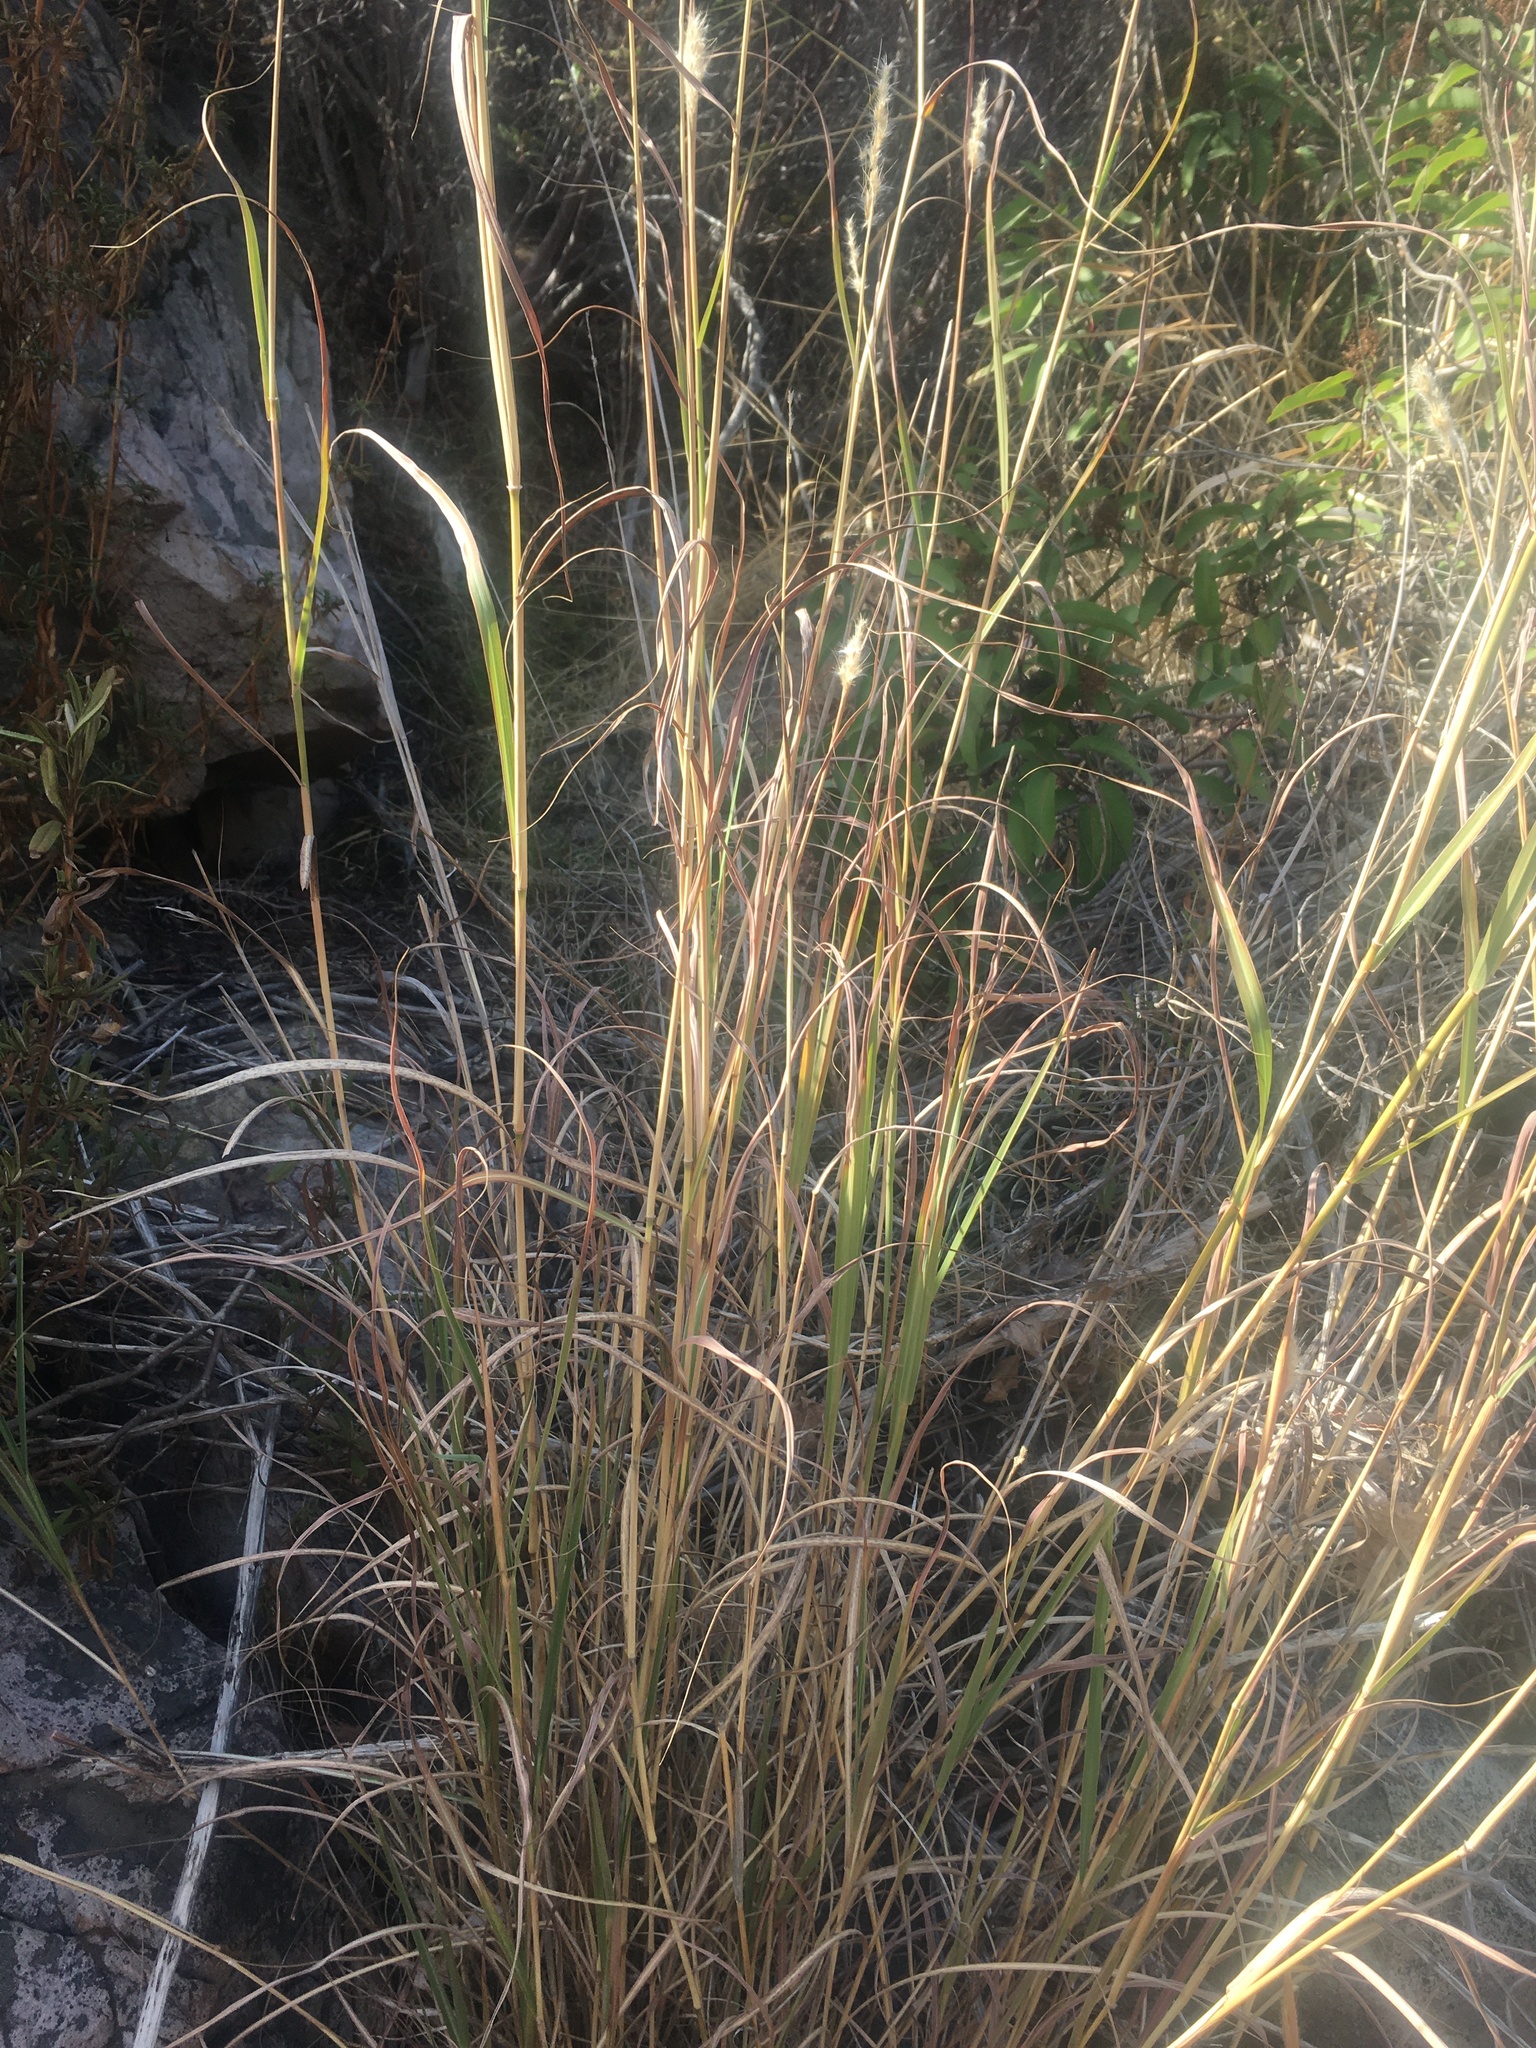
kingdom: Plantae
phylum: Tracheophyta
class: Liliopsida
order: Poales
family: Poaceae
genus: Bothriochloa
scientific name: Bothriochloa barbinodis
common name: Cane bluestem
